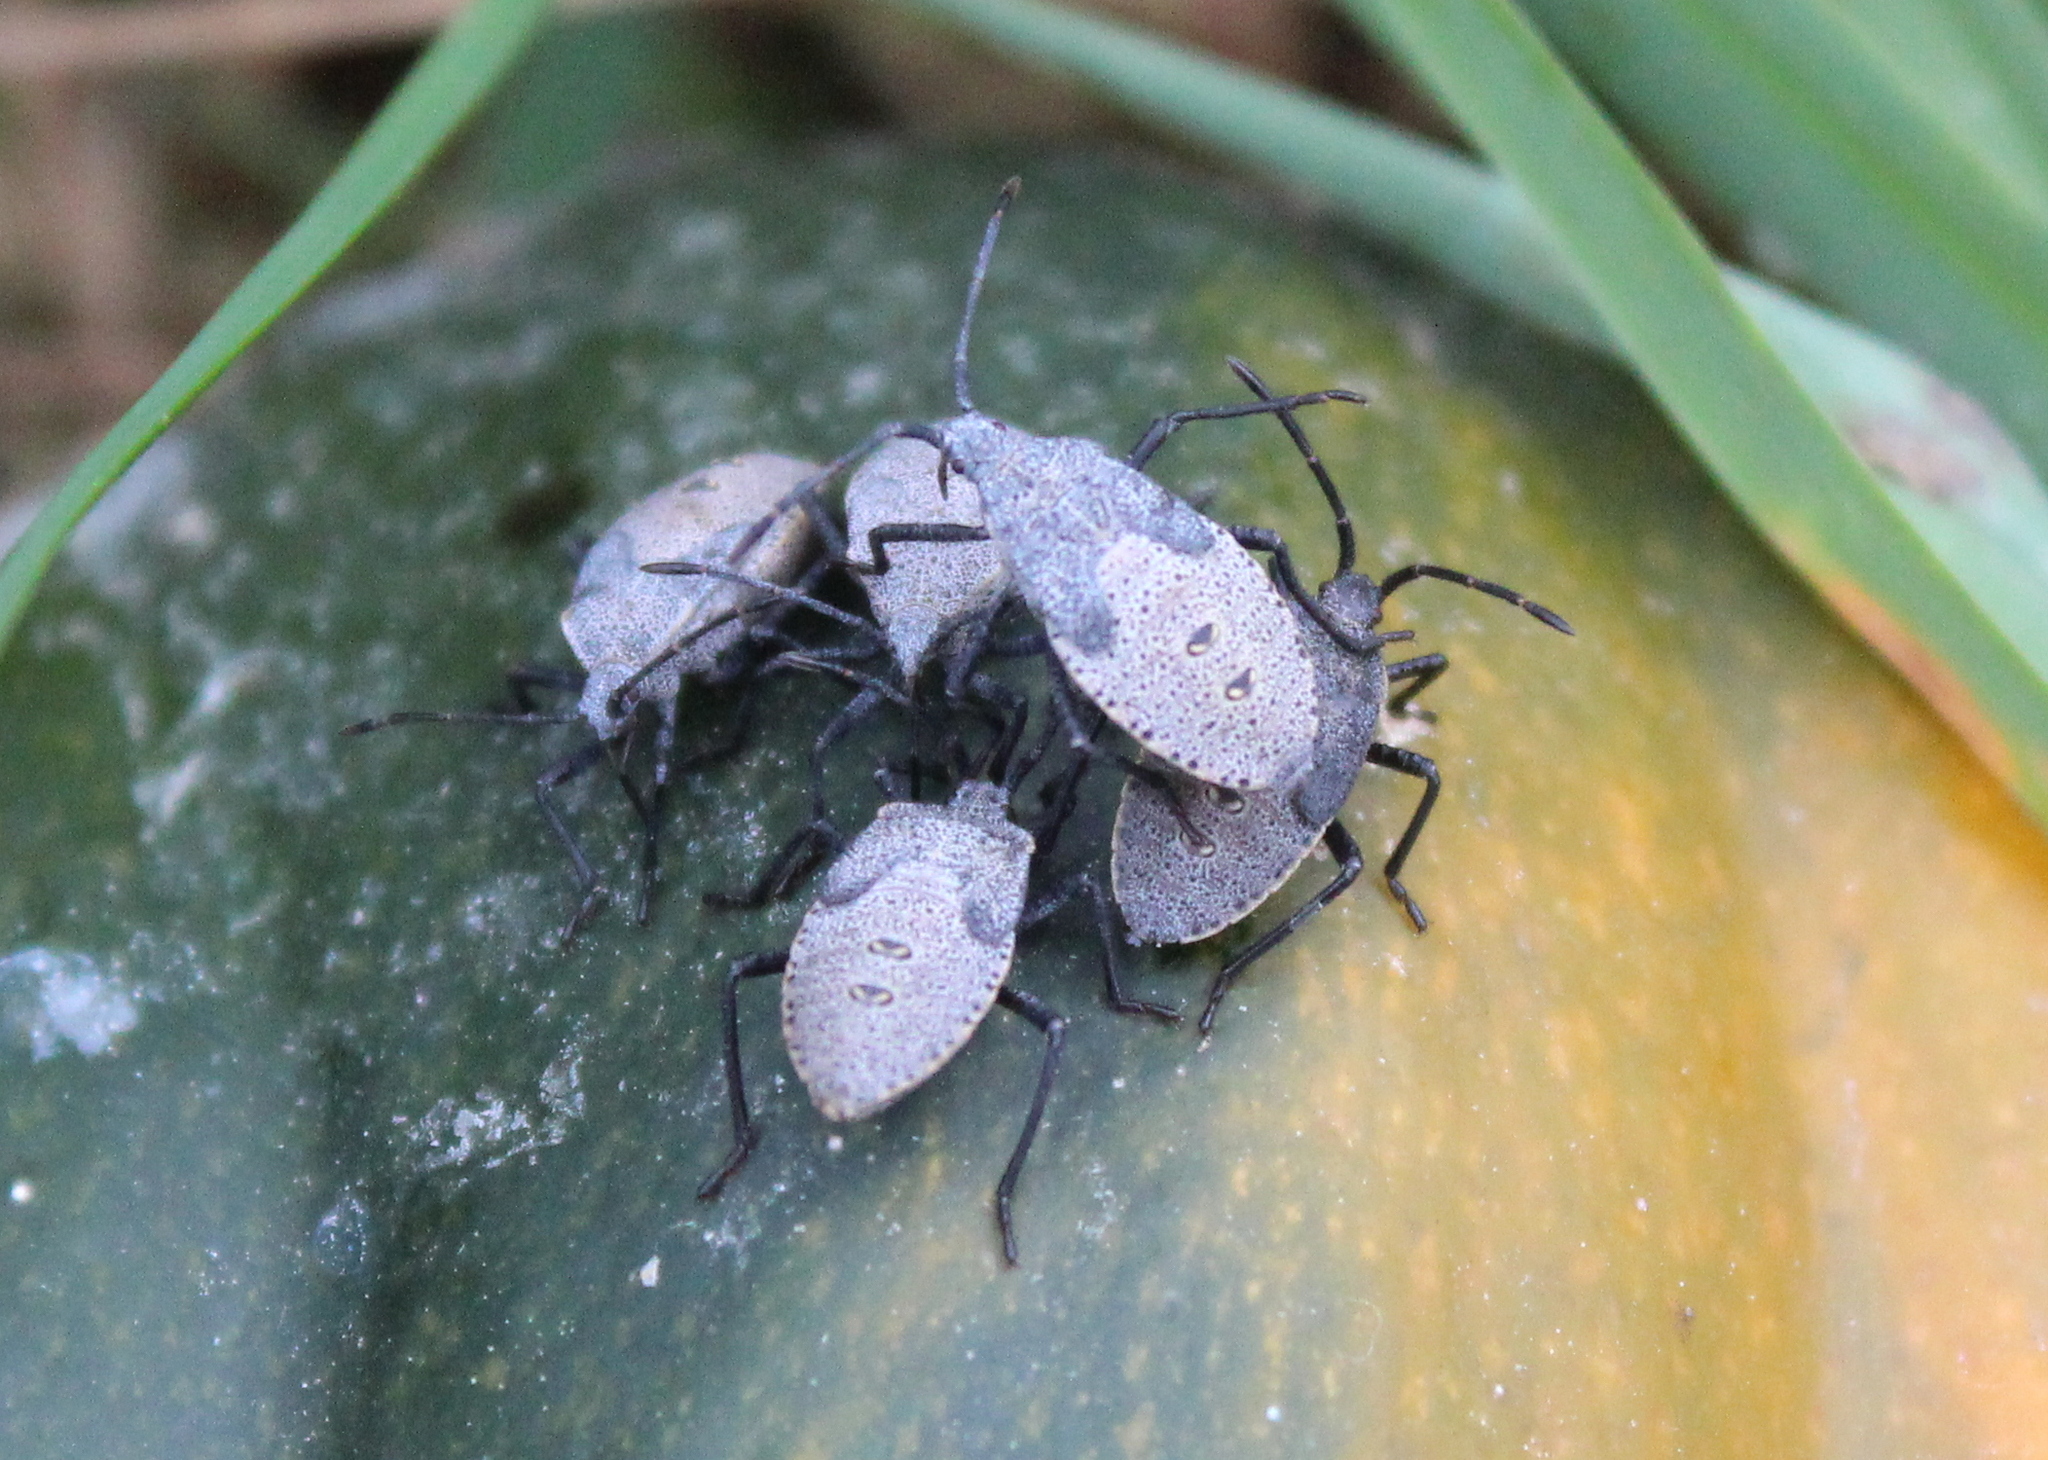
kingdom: Animalia
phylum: Arthropoda
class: Insecta
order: Hemiptera
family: Coreidae
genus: Anasa
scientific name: Anasa tristis
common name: Squash bug
